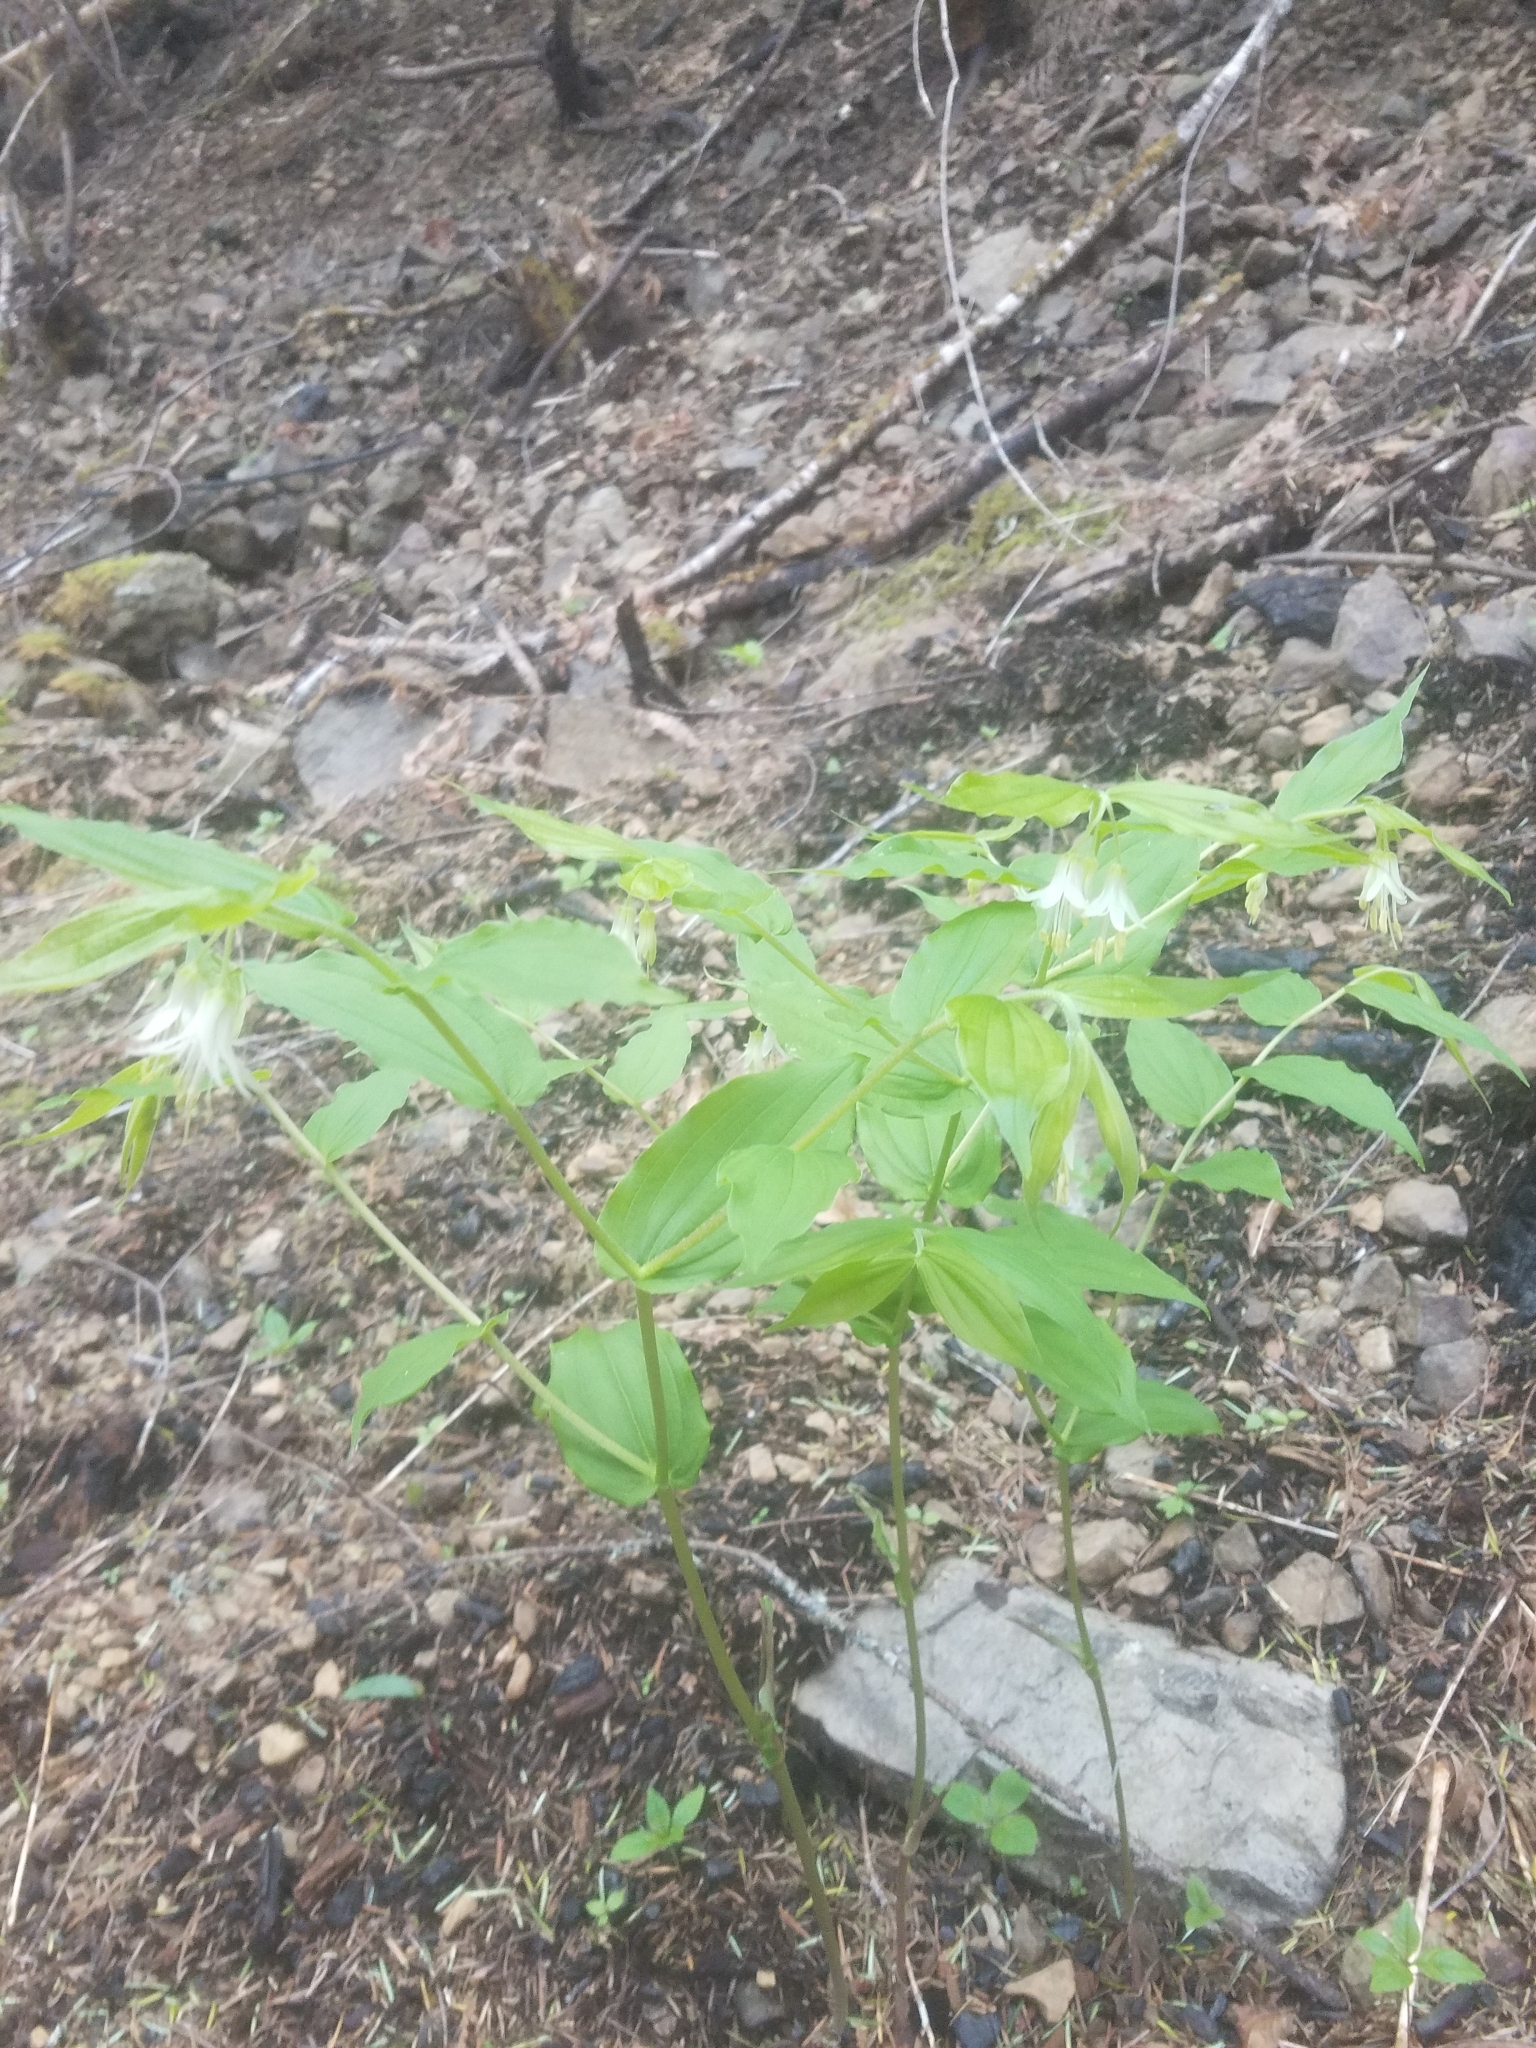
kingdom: Plantae
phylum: Tracheophyta
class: Liliopsida
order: Liliales
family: Liliaceae
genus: Prosartes
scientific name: Prosartes hookeri
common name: Fairy-bells
